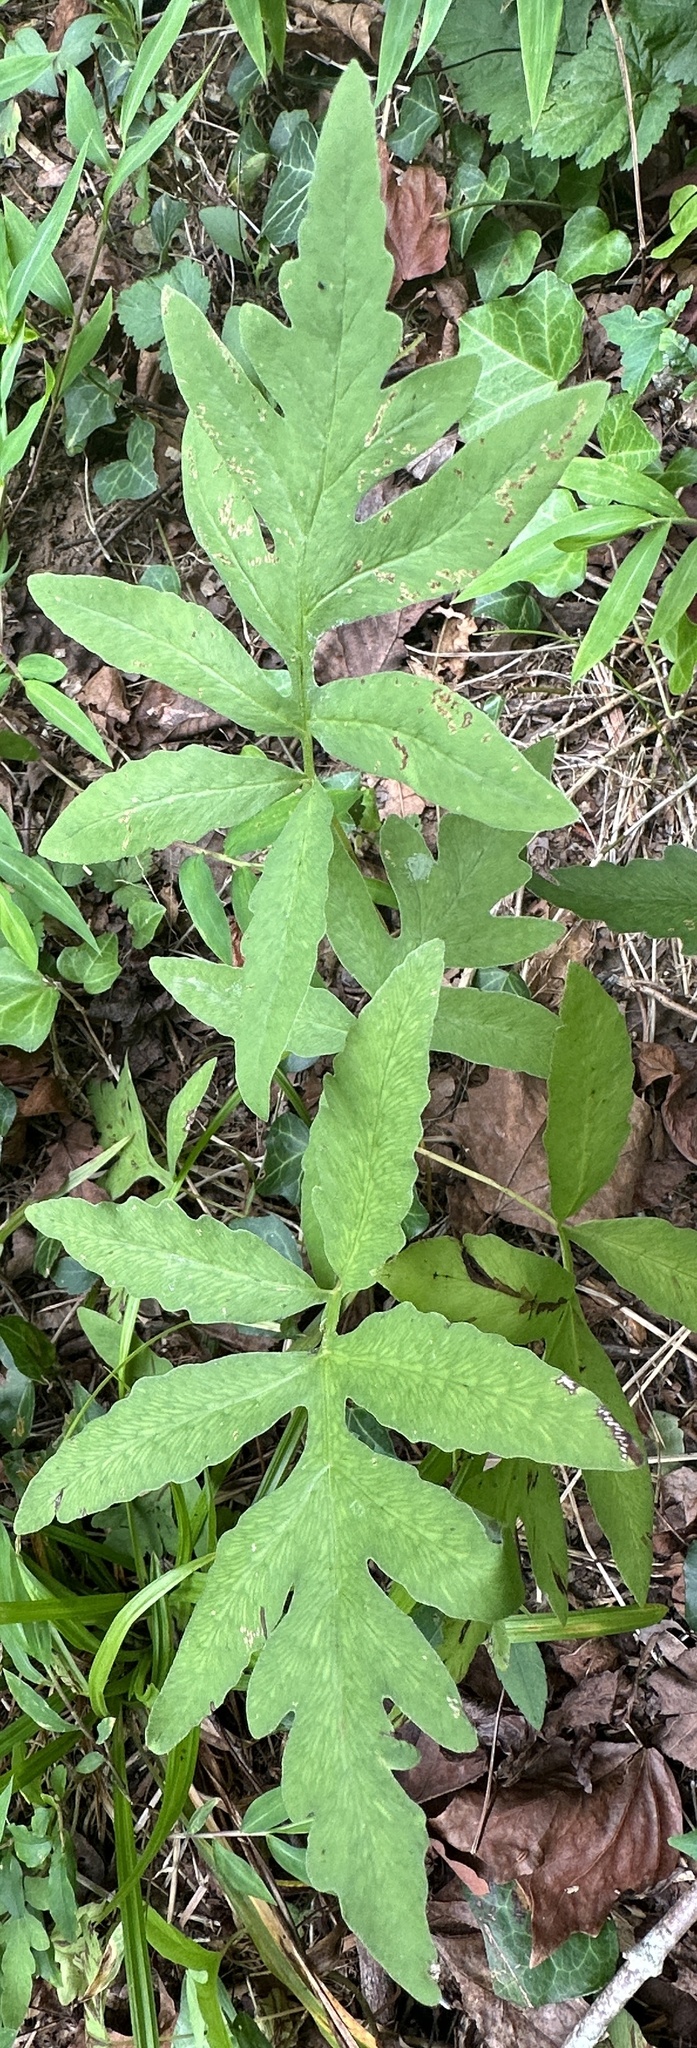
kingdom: Plantae
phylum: Tracheophyta
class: Polypodiopsida
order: Polypodiales
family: Onocleaceae
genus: Onoclea
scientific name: Onoclea sensibilis
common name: Sensitive fern
